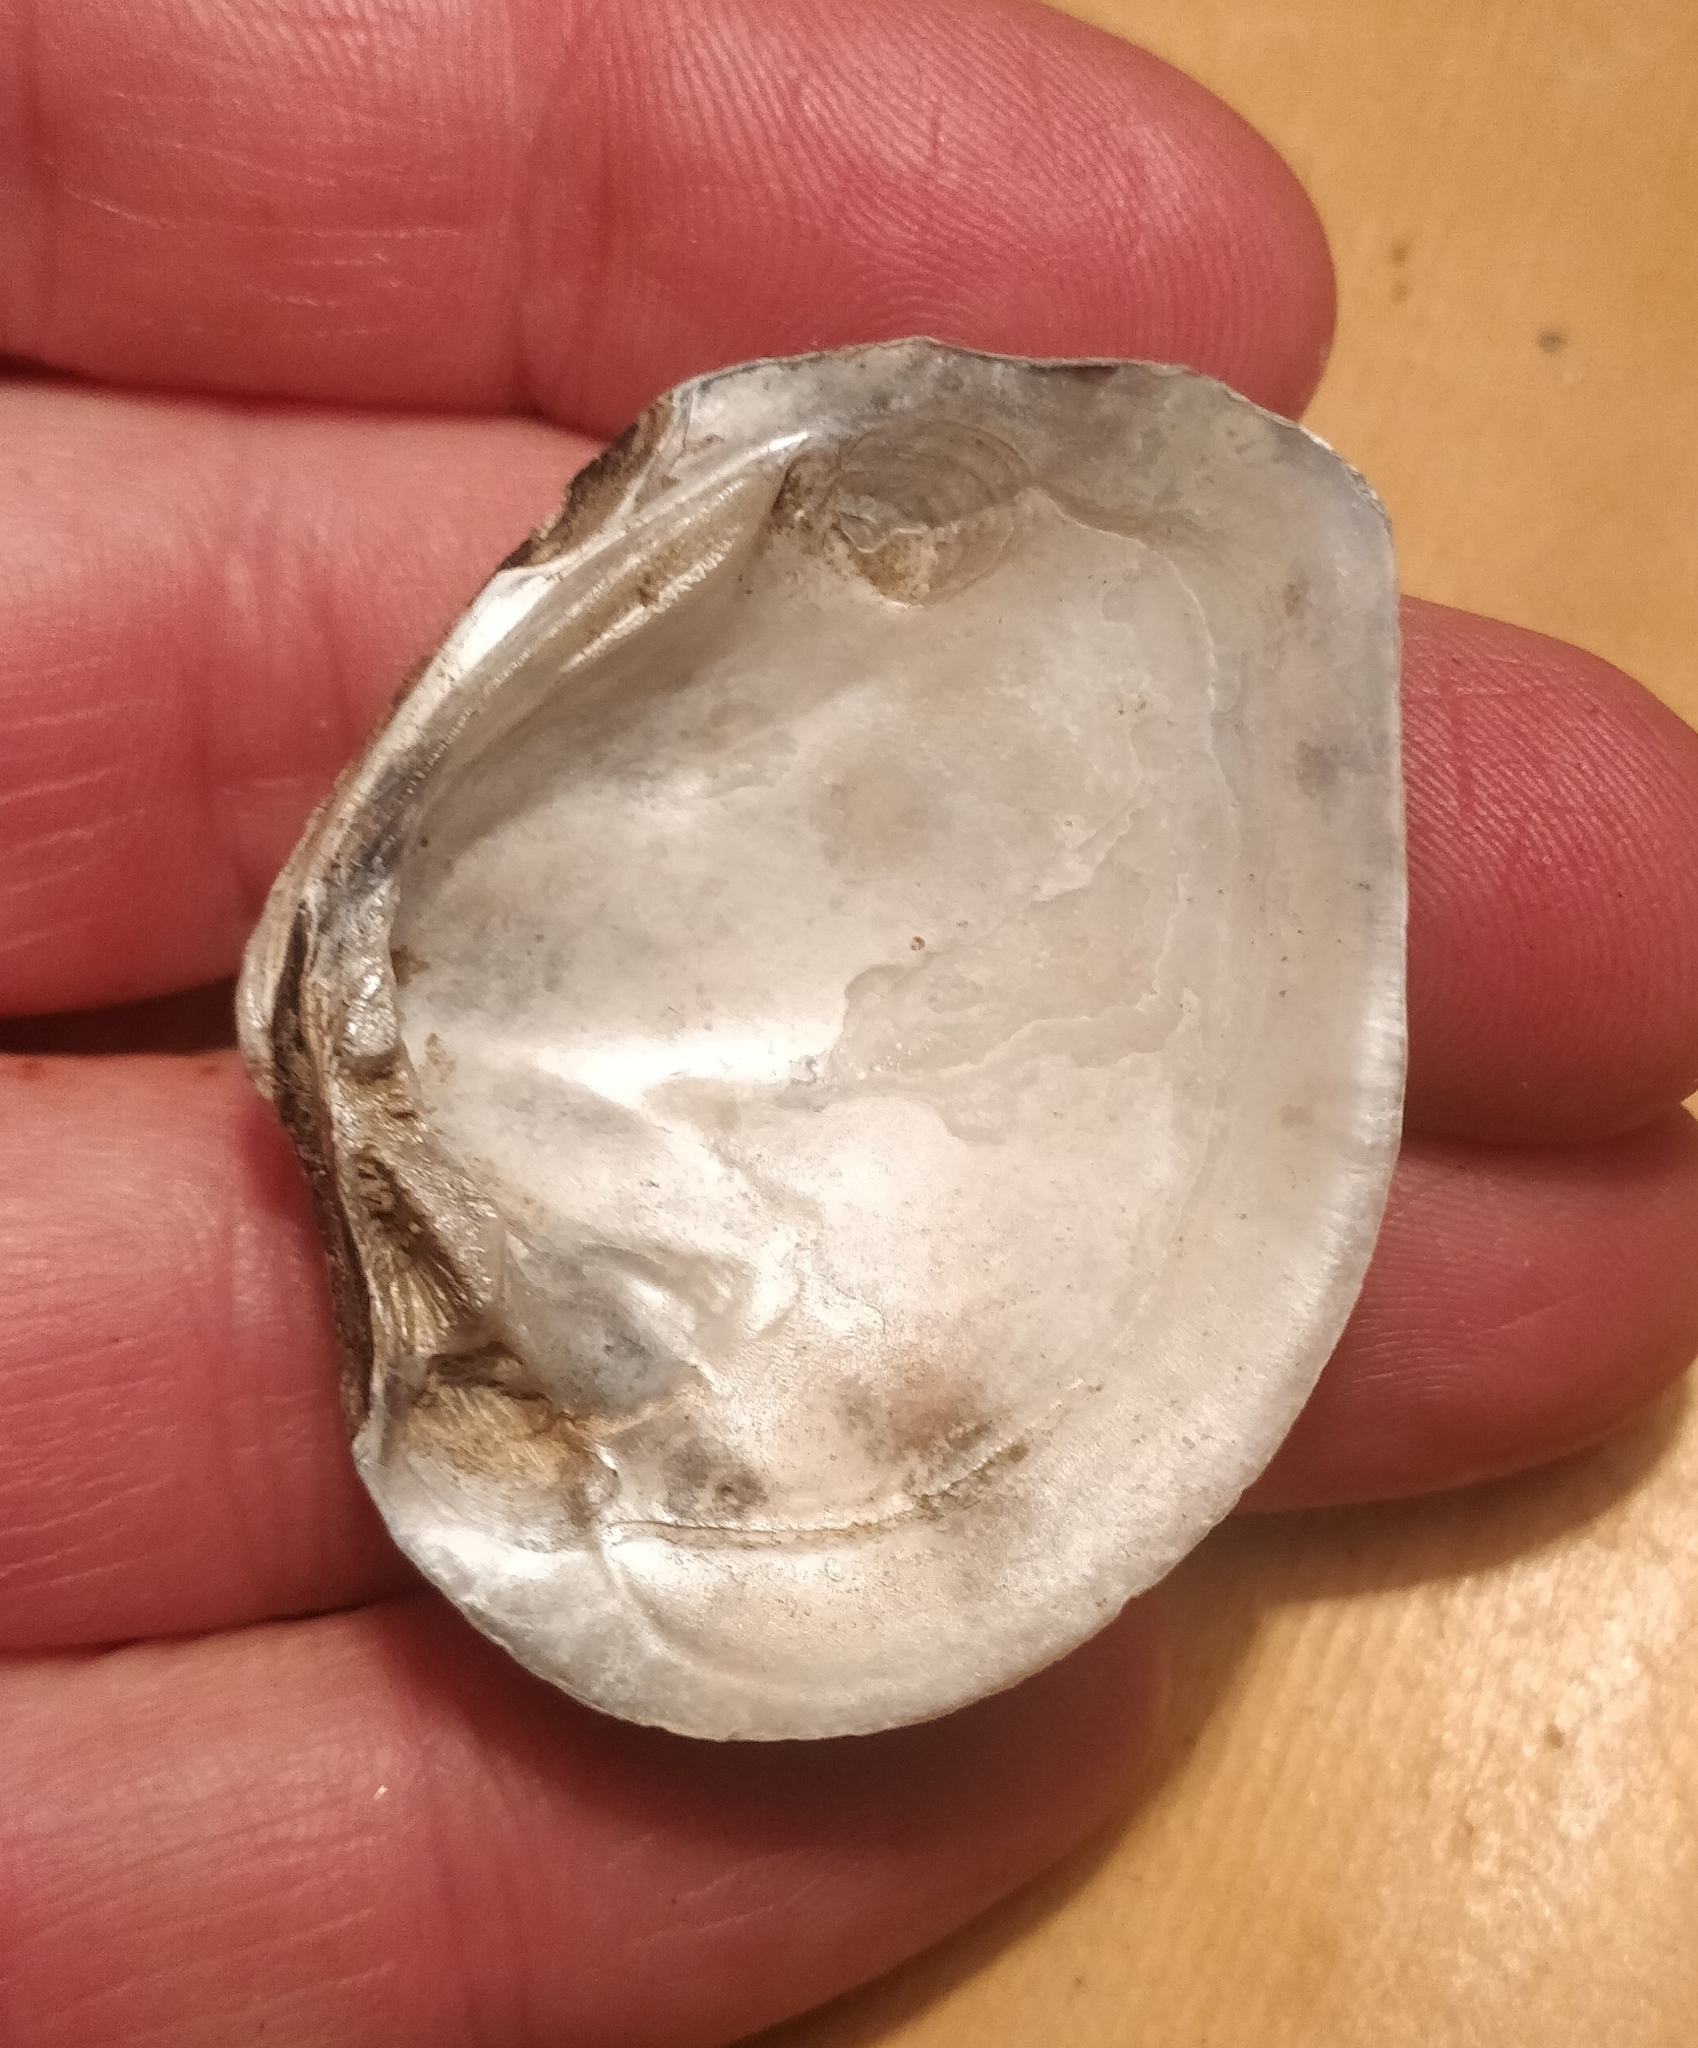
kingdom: Animalia
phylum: Mollusca
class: Bivalvia
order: Unionida
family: Unionidae
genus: Fusconaia
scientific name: Fusconaia flava
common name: Wabash pigtoe
